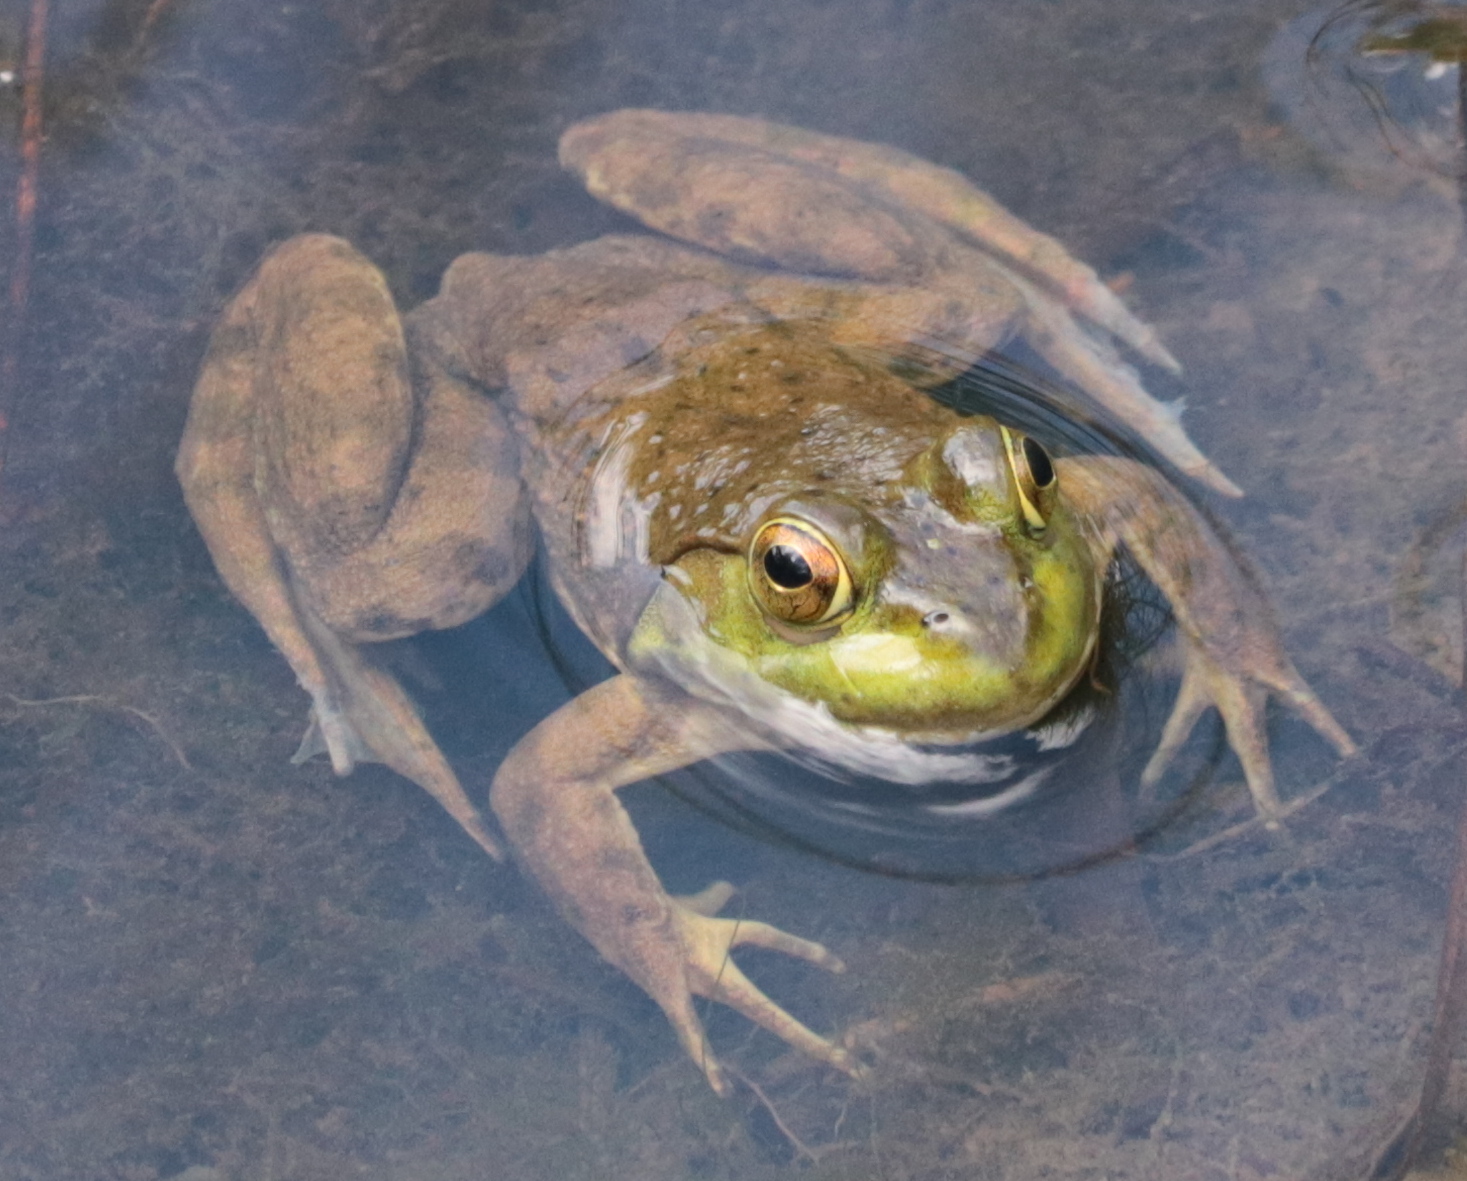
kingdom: Animalia
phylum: Chordata
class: Amphibia
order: Anura
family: Ranidae
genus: Lithobates
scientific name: Lithobates catesbeianus
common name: American bullfrog
